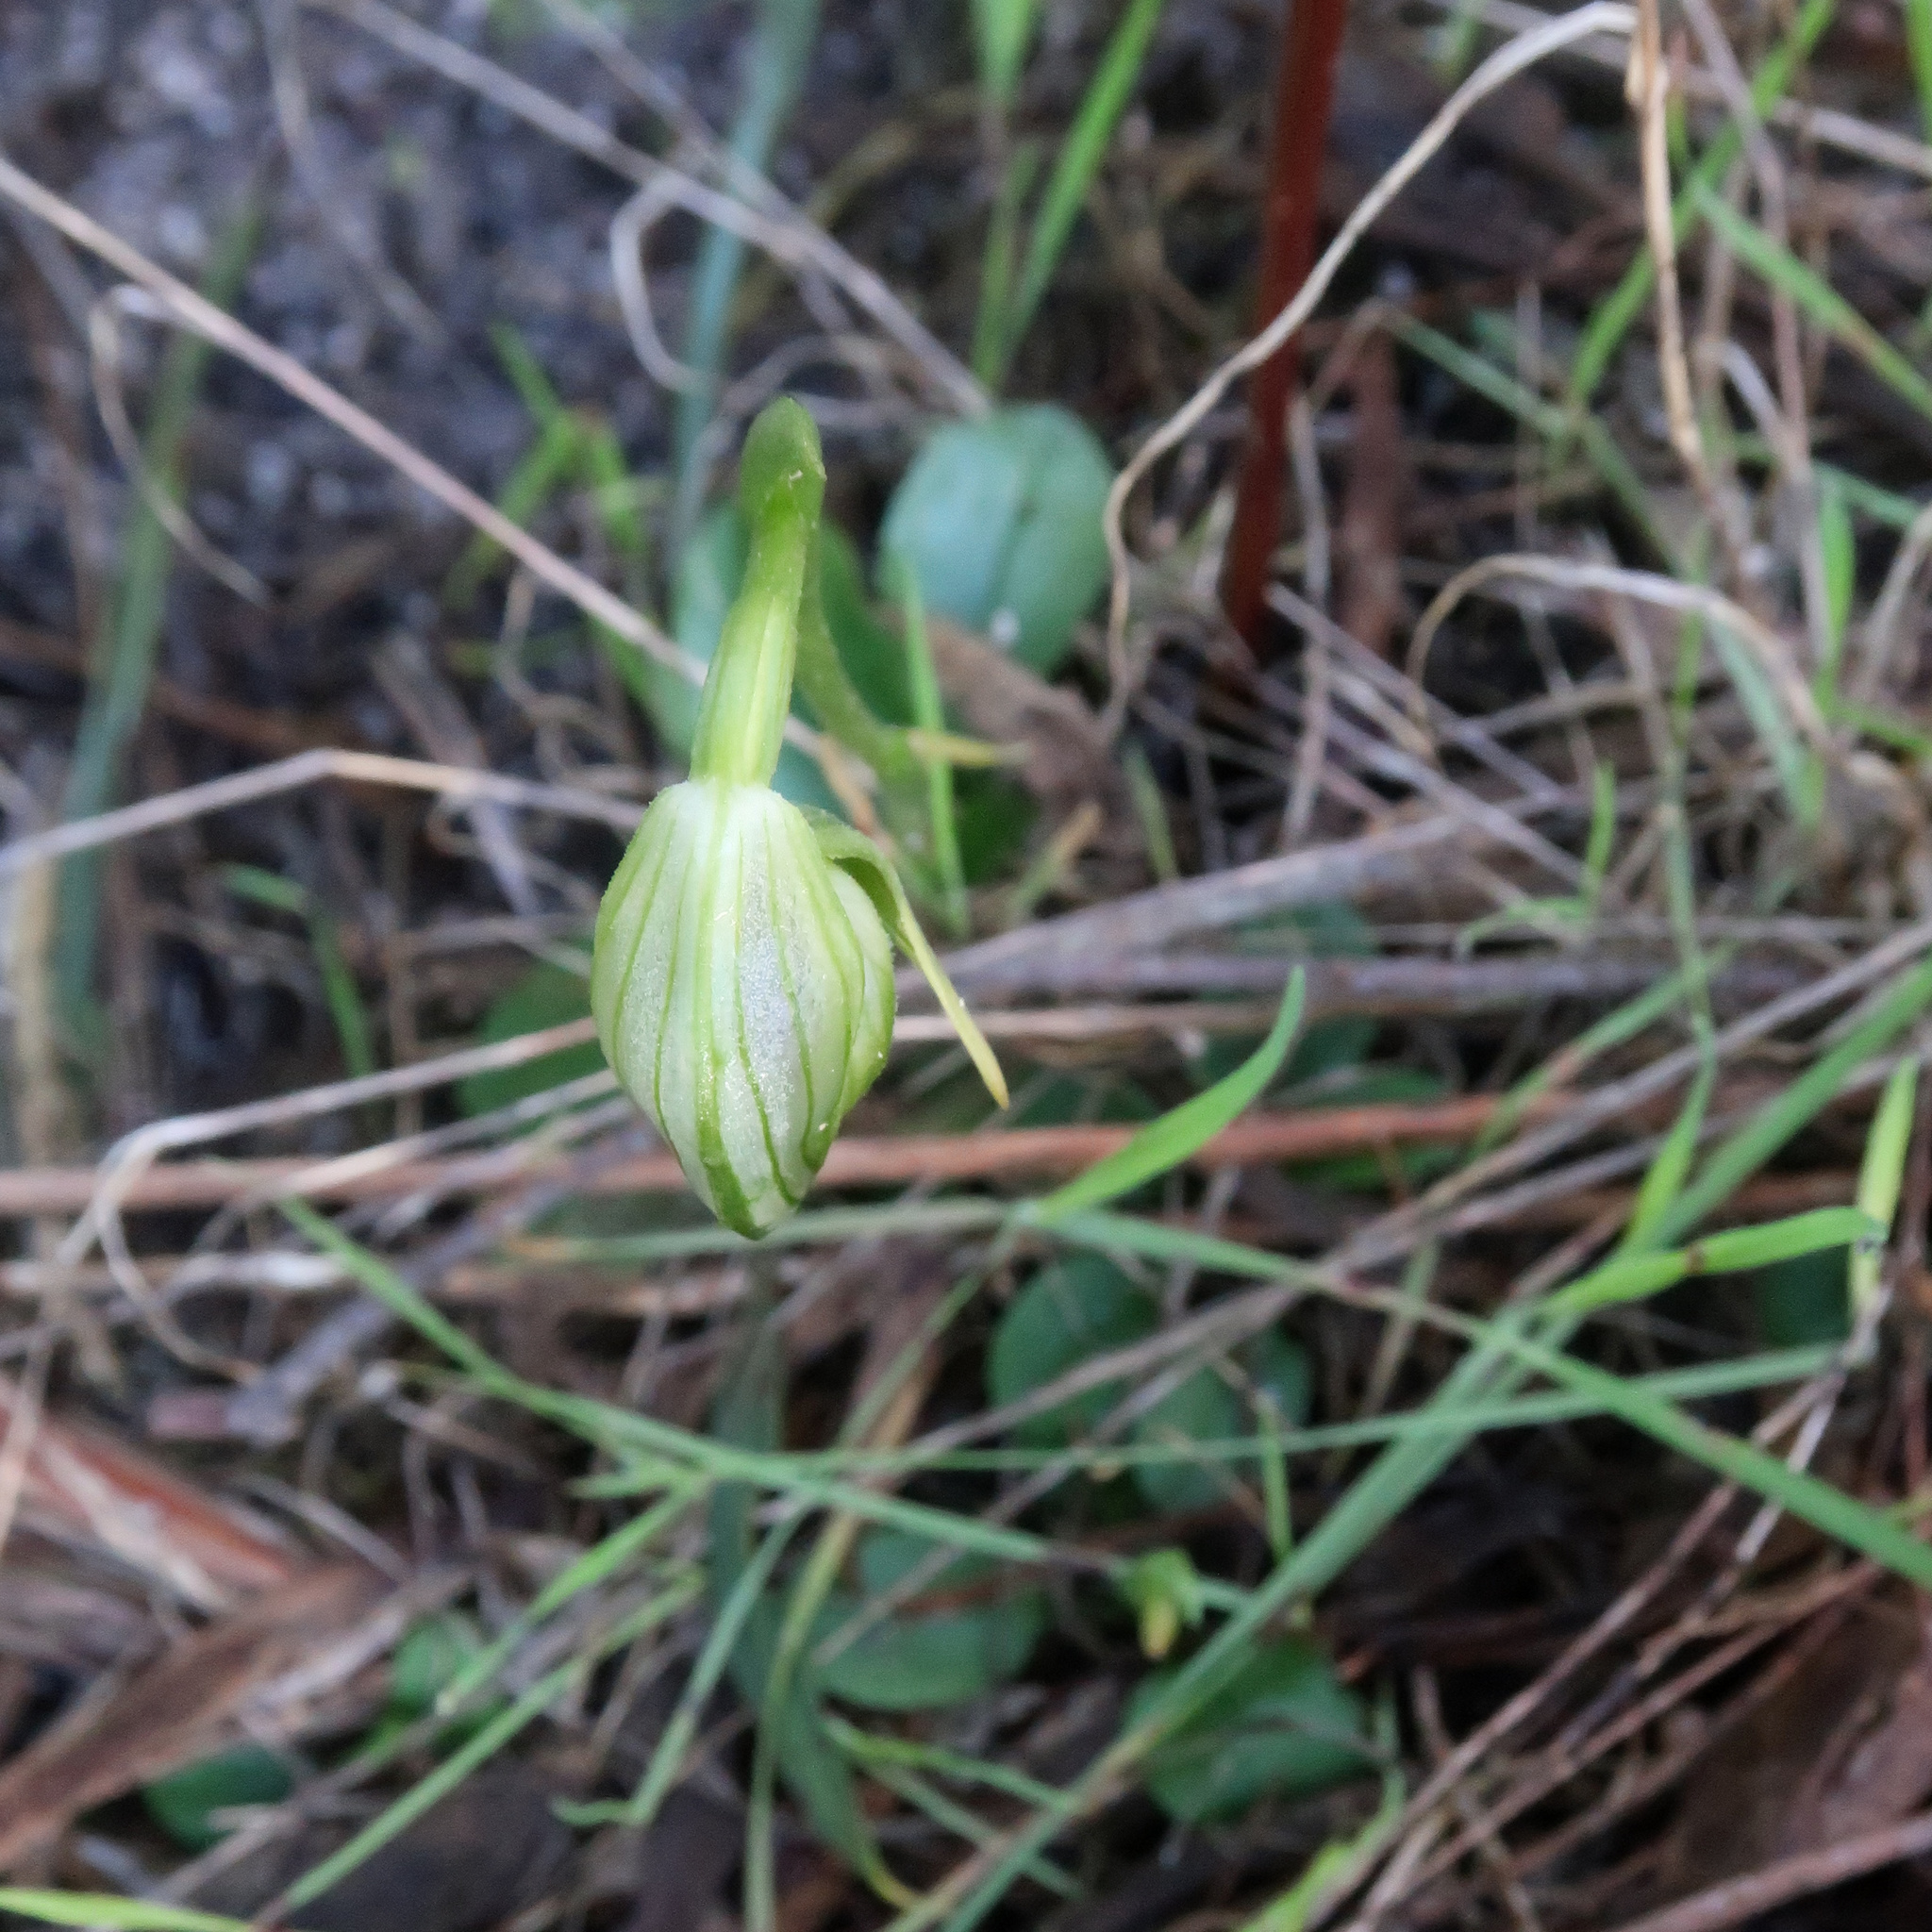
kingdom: Plantae
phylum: Tracheophyta
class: Liliopsida
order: Asparagales
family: Orchidaceae
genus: Pterostylis
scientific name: Pterostylis nutans
